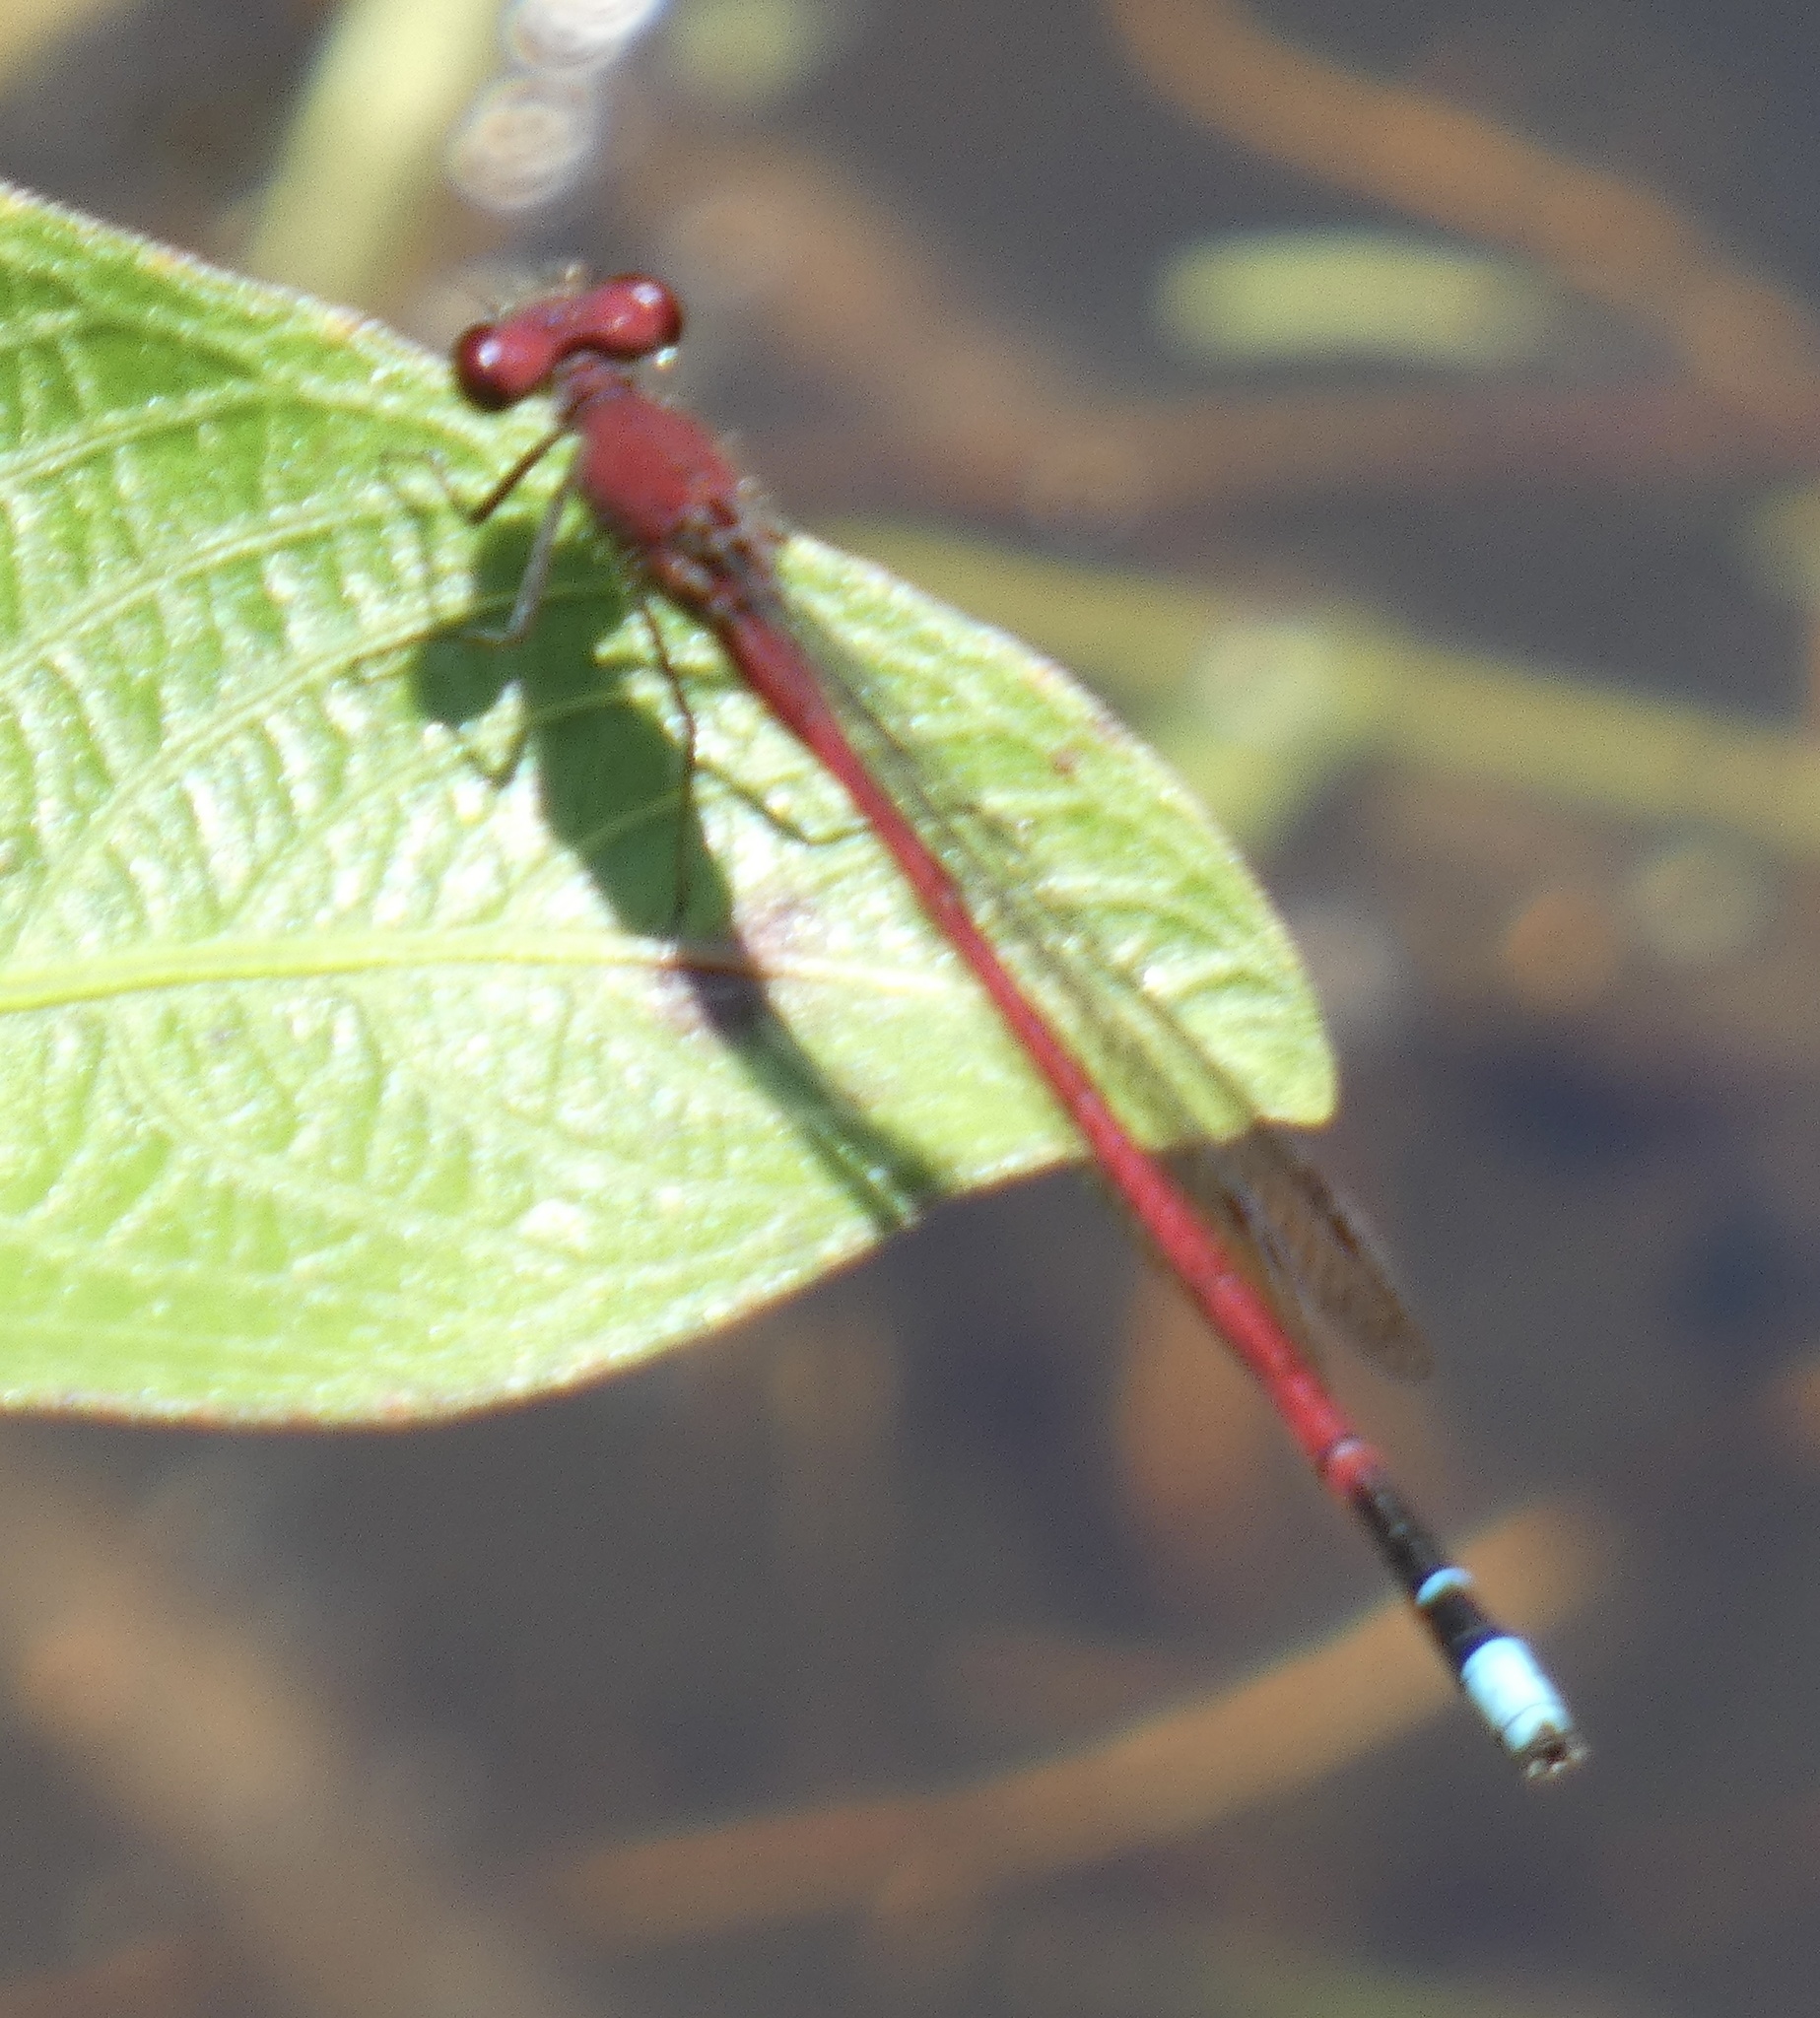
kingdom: Animalia
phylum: Arthropoda
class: Insecta
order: Odonata
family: Coenagrionidae
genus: Oxyagrion
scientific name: Oxyagrion simile
